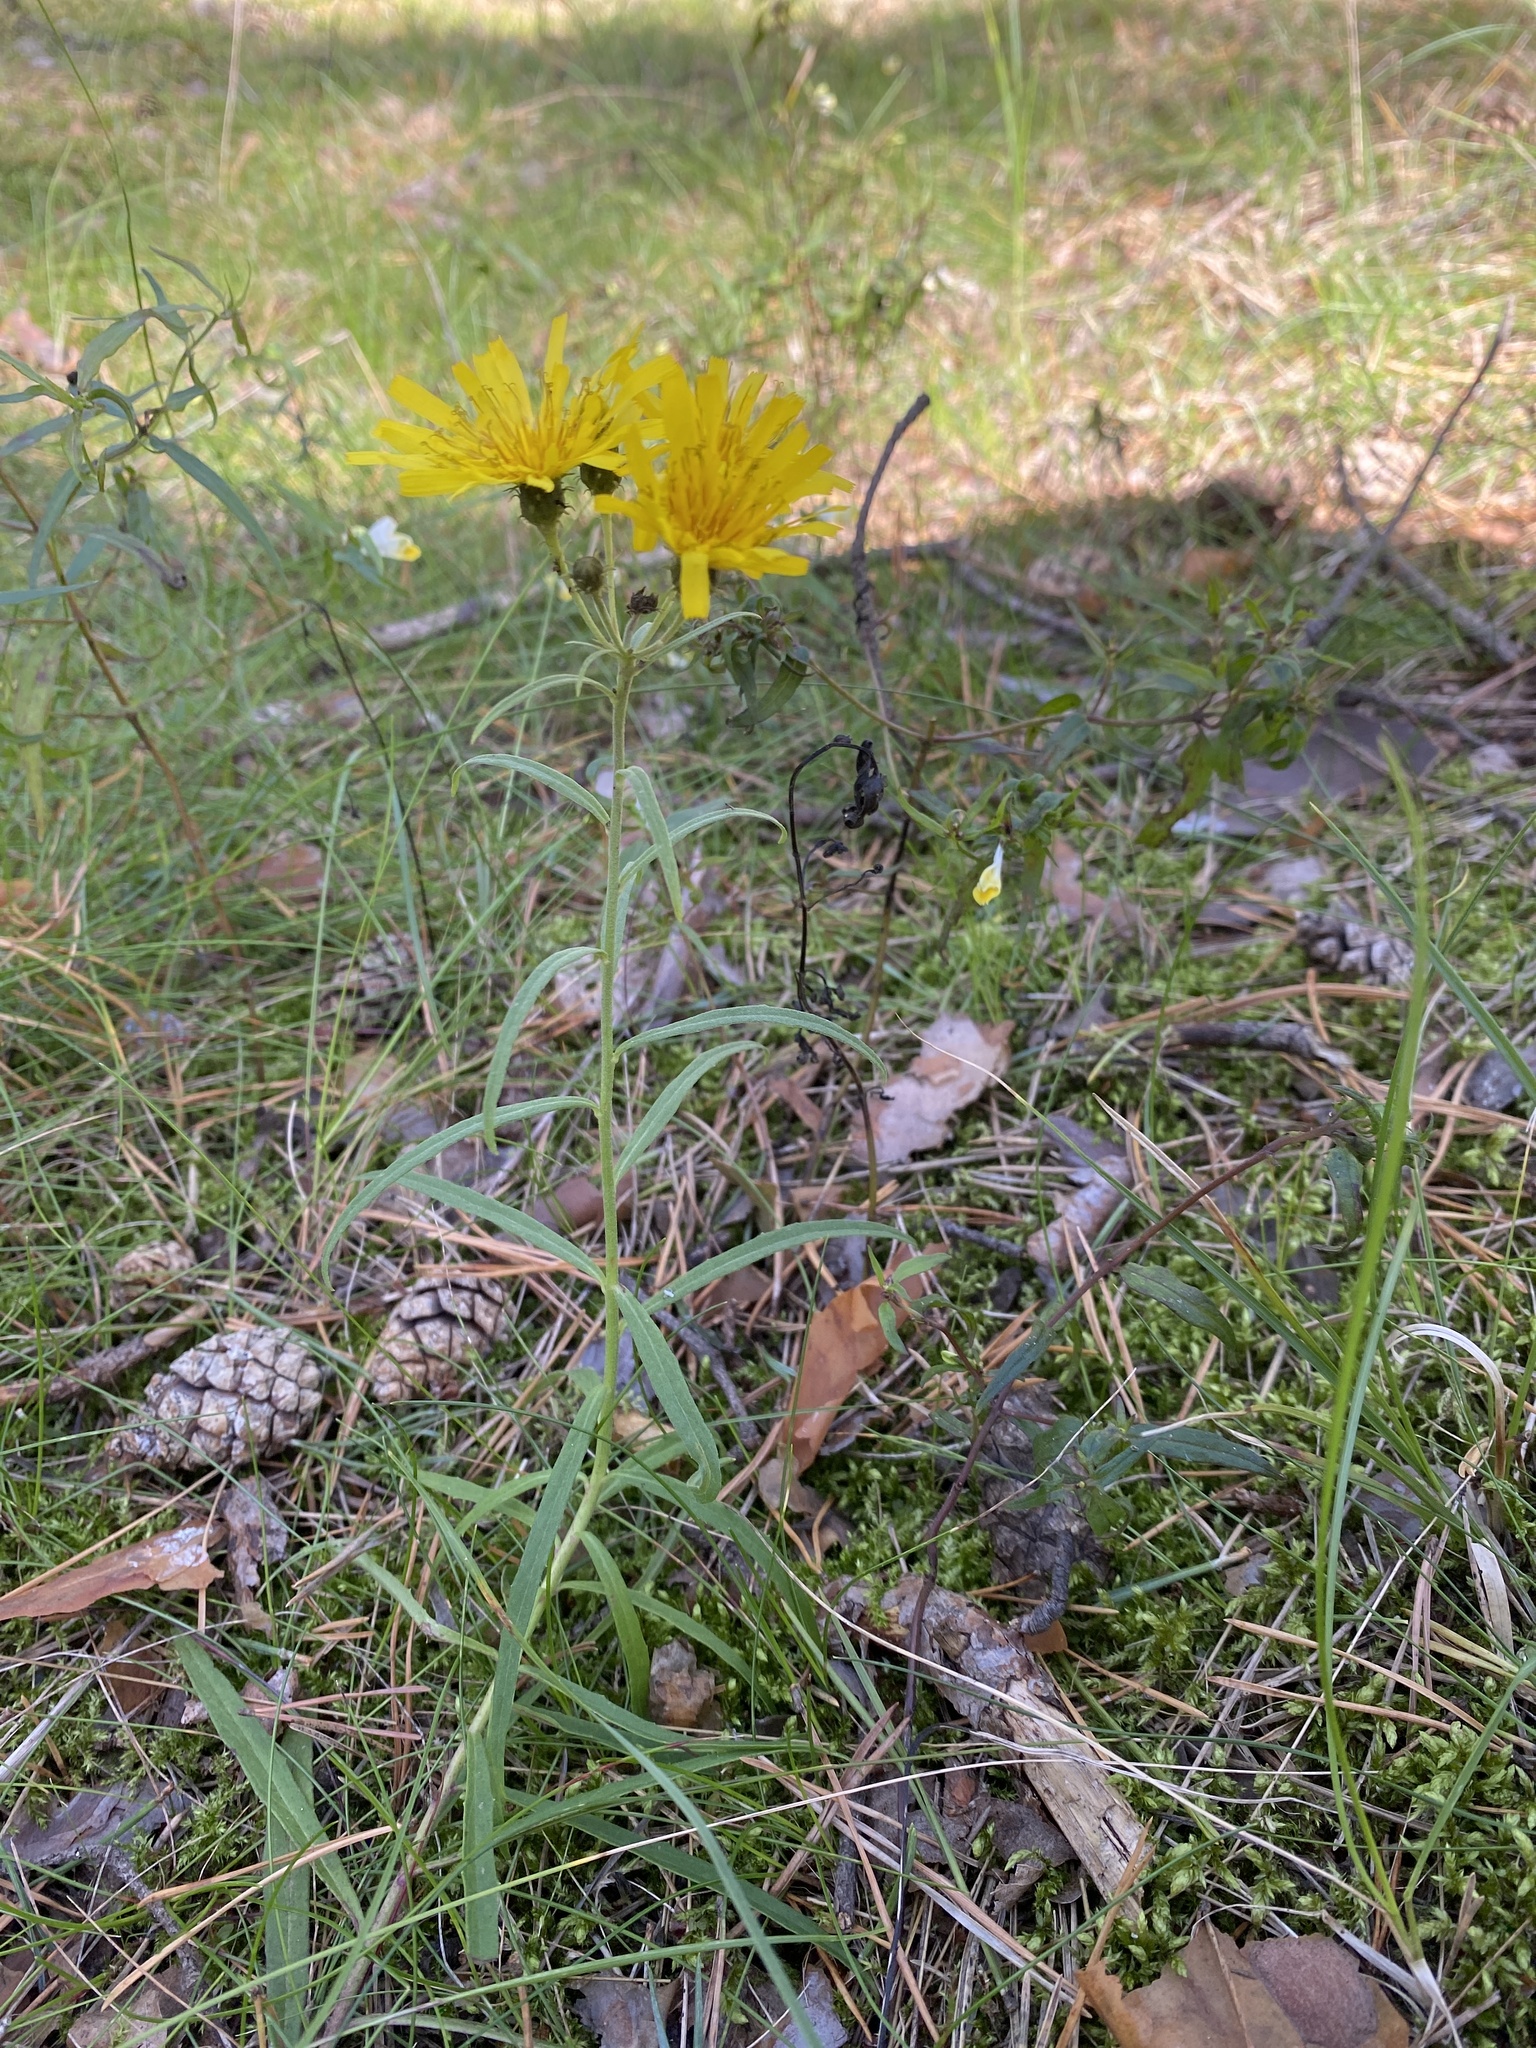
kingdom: Plantae
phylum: Tracheophyta
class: Magnoliopsida
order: Asterales
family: Asteraceae
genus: Hieracium
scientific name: Hieracium umbellatum
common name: Northern hawkweed
